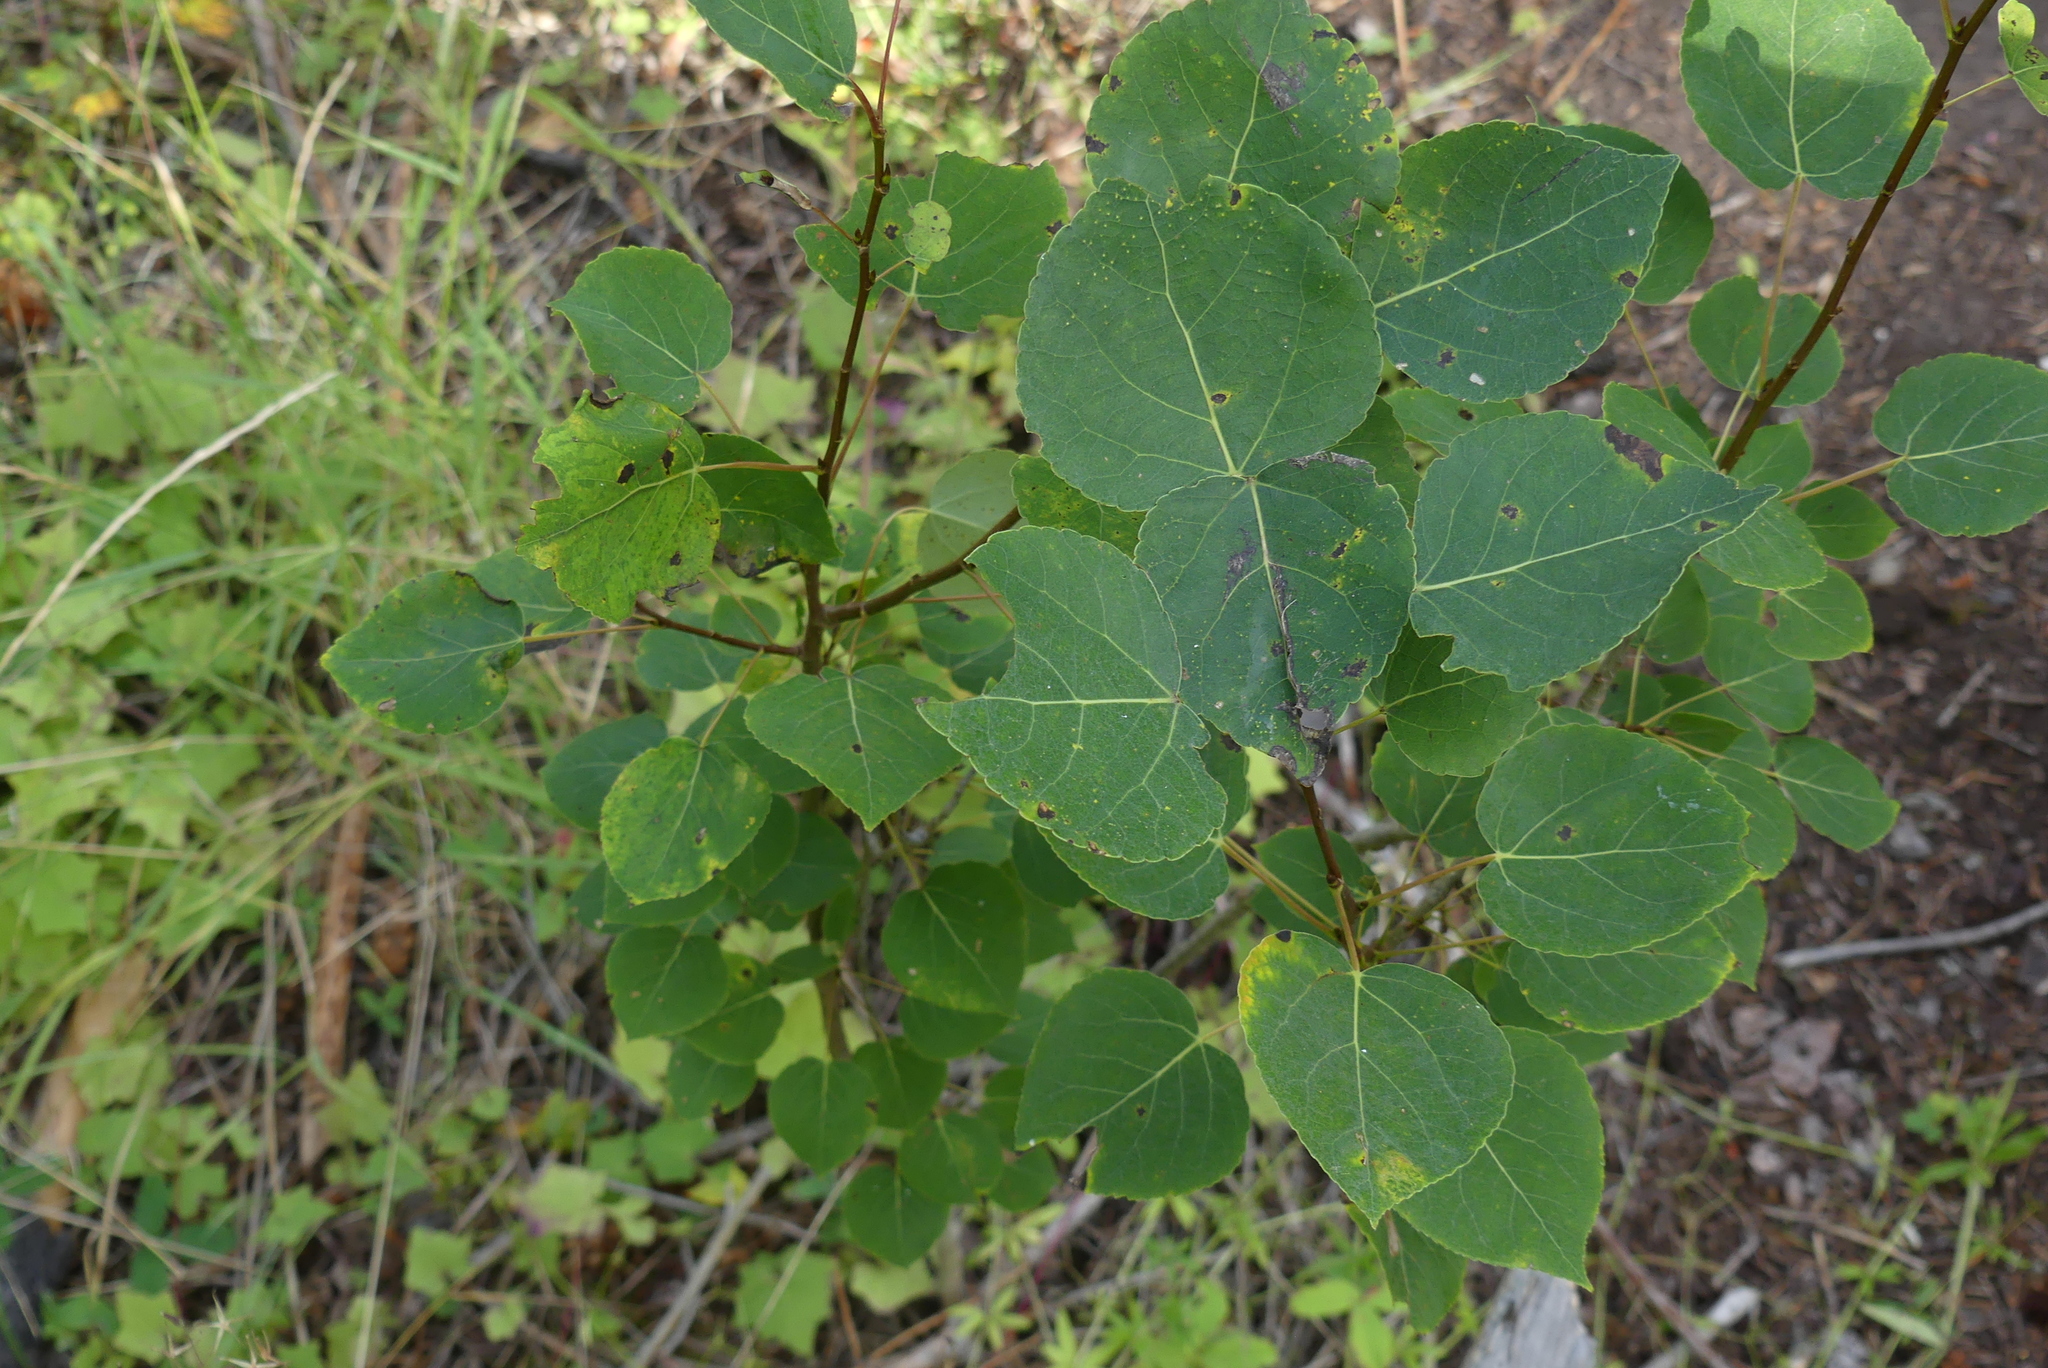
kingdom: Plantae
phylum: Tracheophyta
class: Magnoliopsida
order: Malpighiales
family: Salicaceae
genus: Populus
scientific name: Populus tremuloides
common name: Quaking aspen
